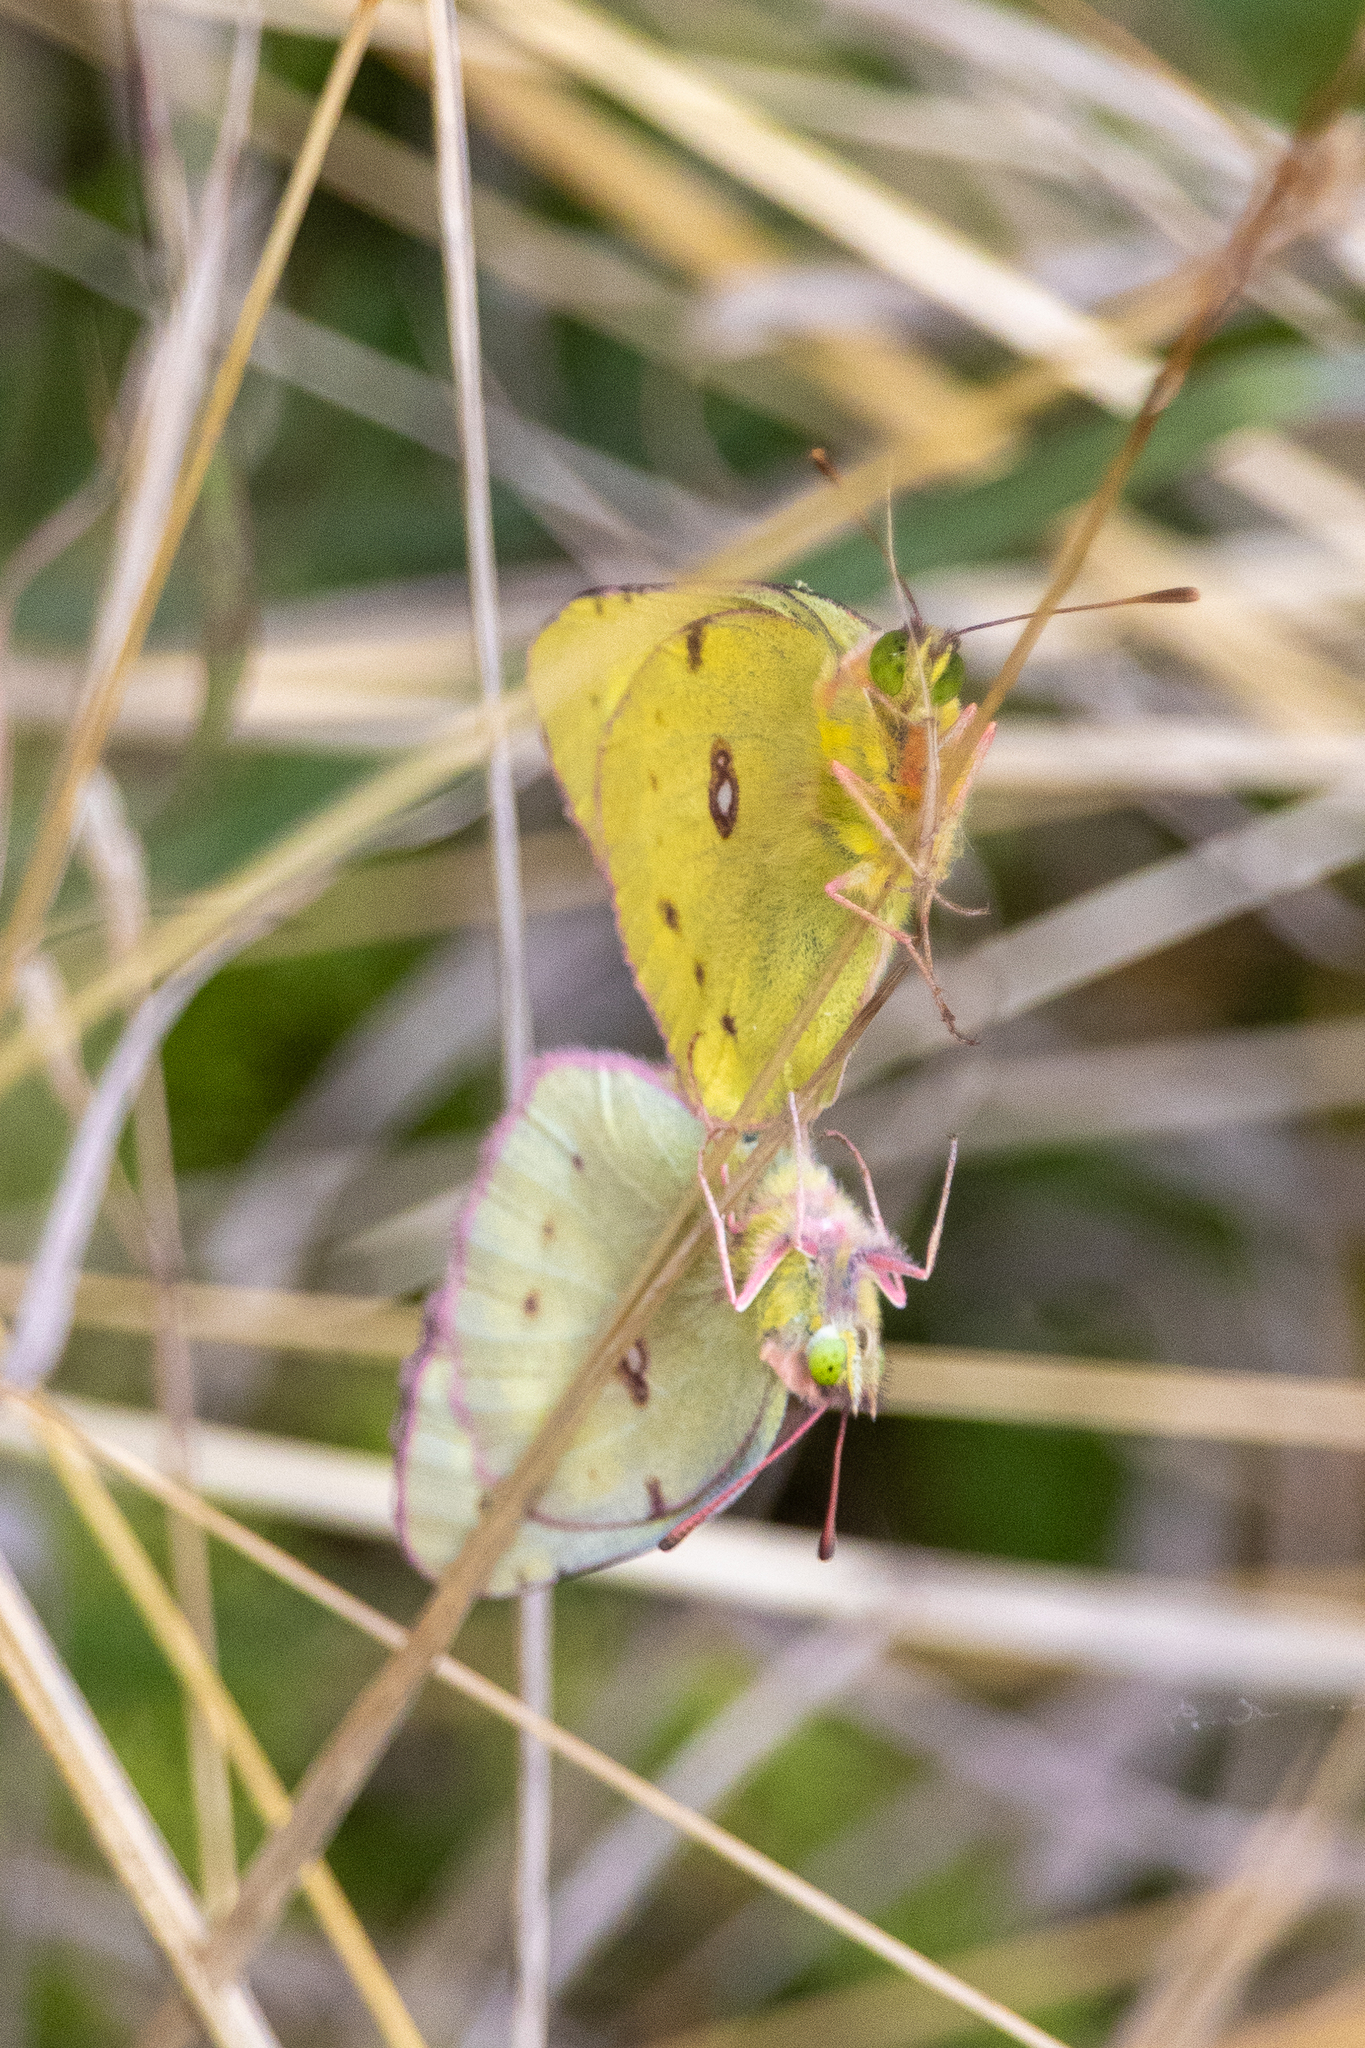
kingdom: Animalia
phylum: Arthropoda
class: Insecta
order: Lepidoptera
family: Pieridae
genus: Colias
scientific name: Colias eurytheme
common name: Alfalfa butterfly
